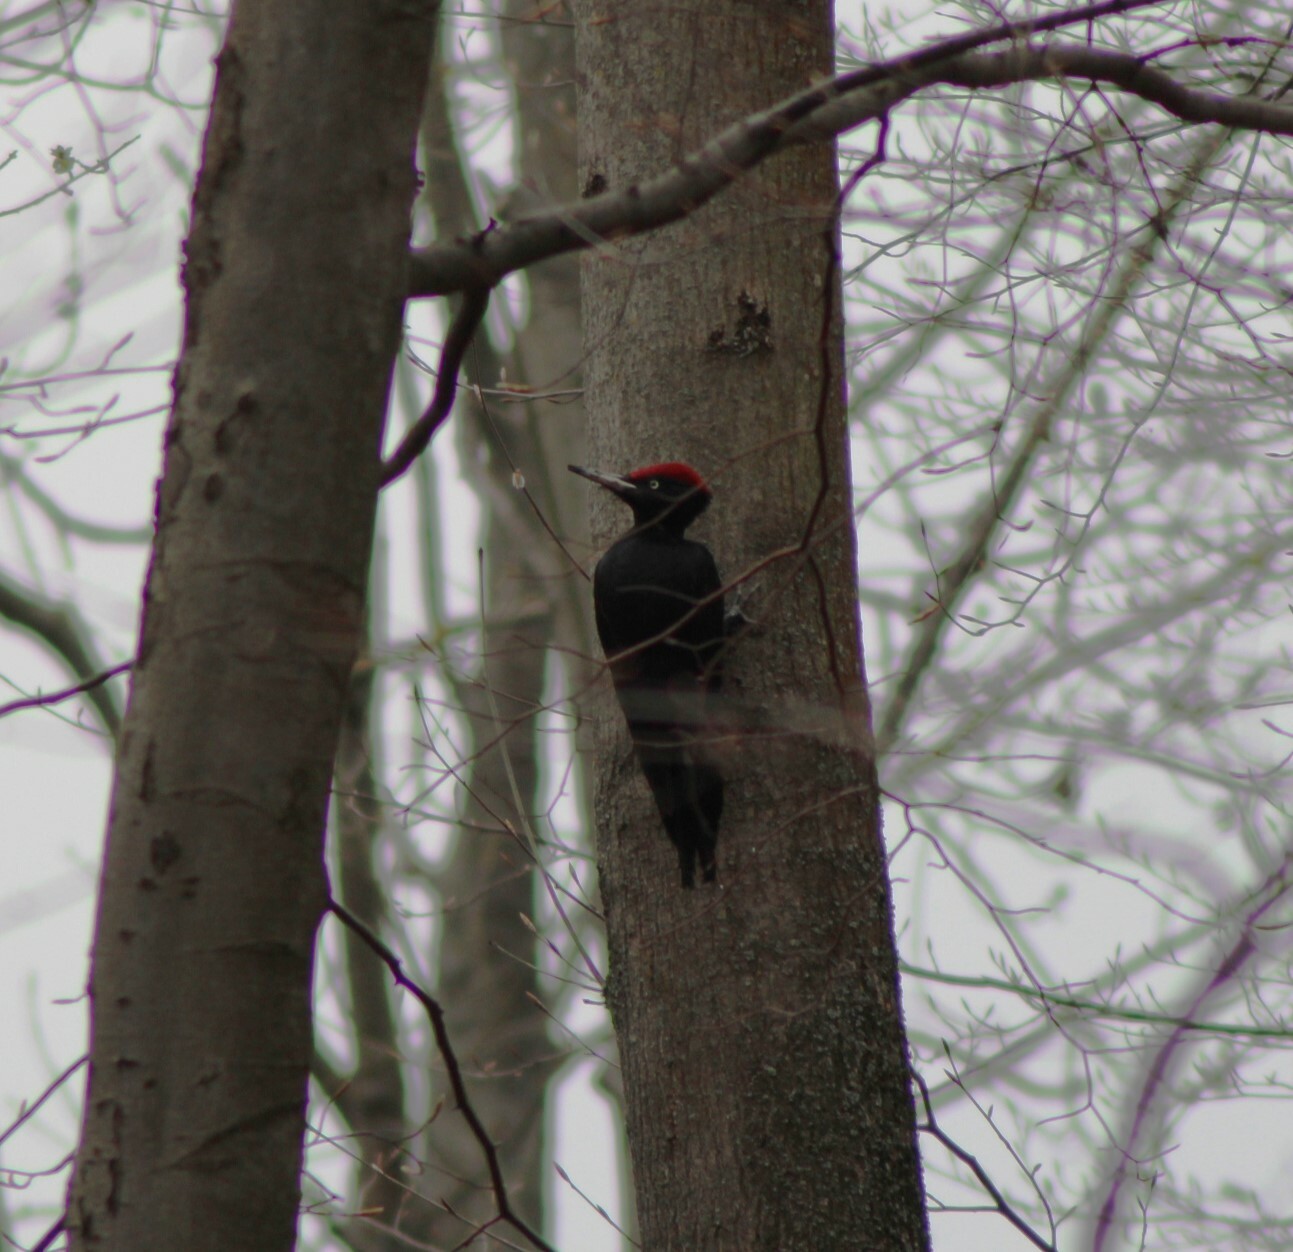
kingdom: Animalia
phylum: Chordata
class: Aves
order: Piciformes
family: Picidae
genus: Dryocopus
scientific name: Dryocopus martius
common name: Black woodpecker
